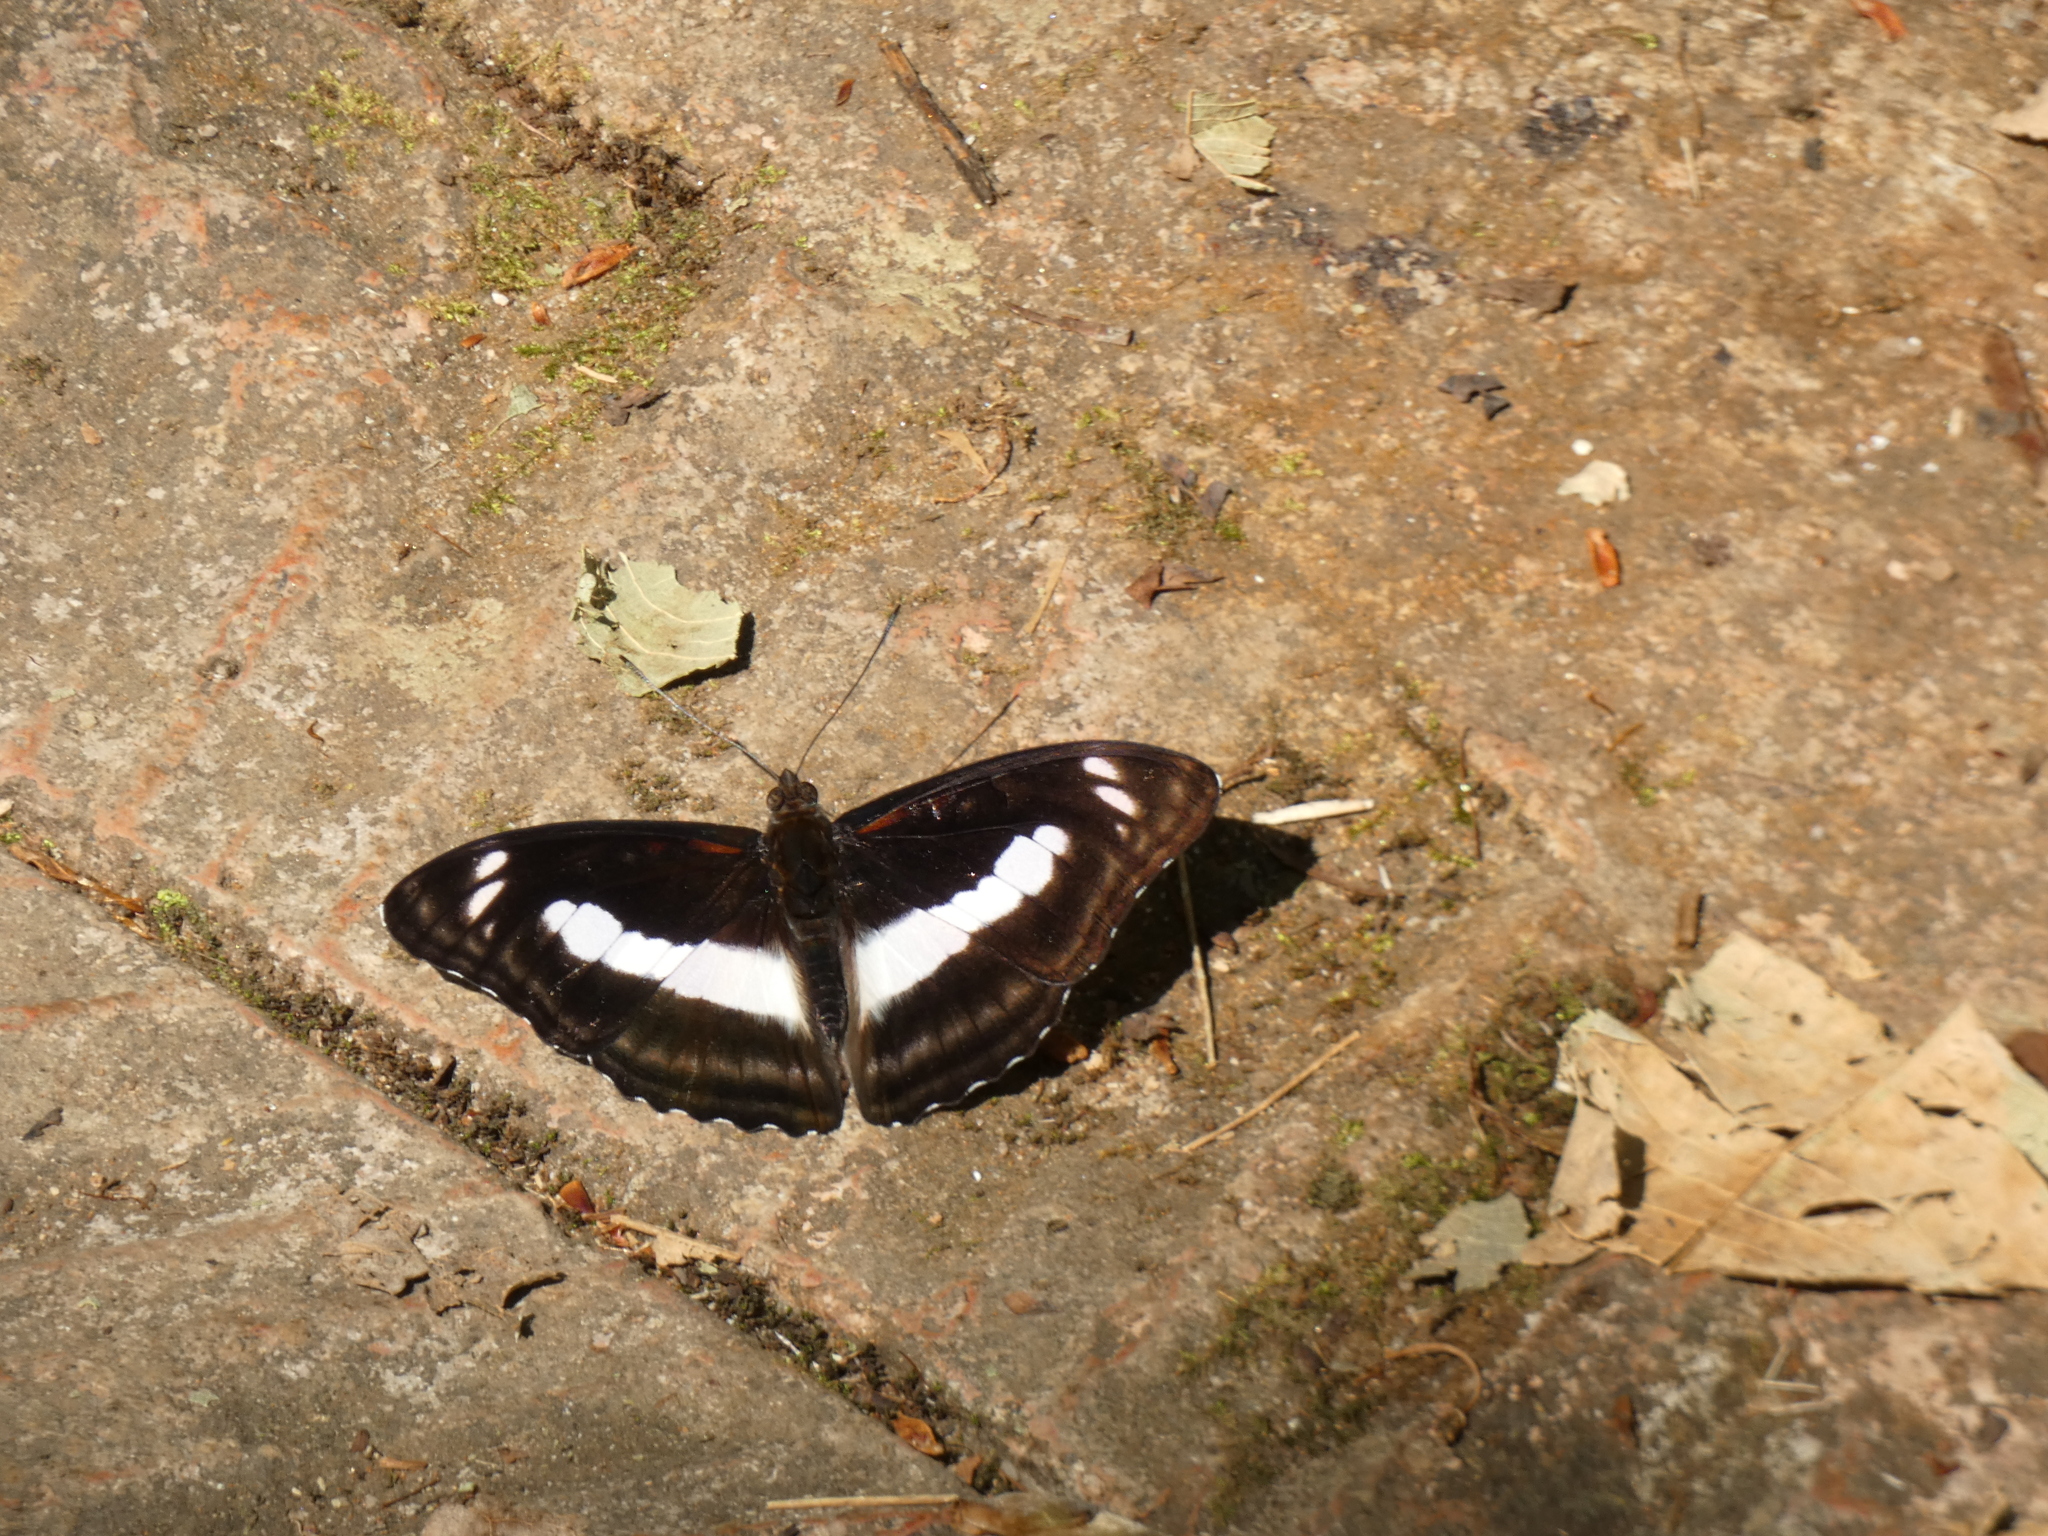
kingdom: Animalia
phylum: Arthropoda
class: Insecta
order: Lepidoptera
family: Nymphalidae
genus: Parathyma
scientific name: Parathyma selenophora
